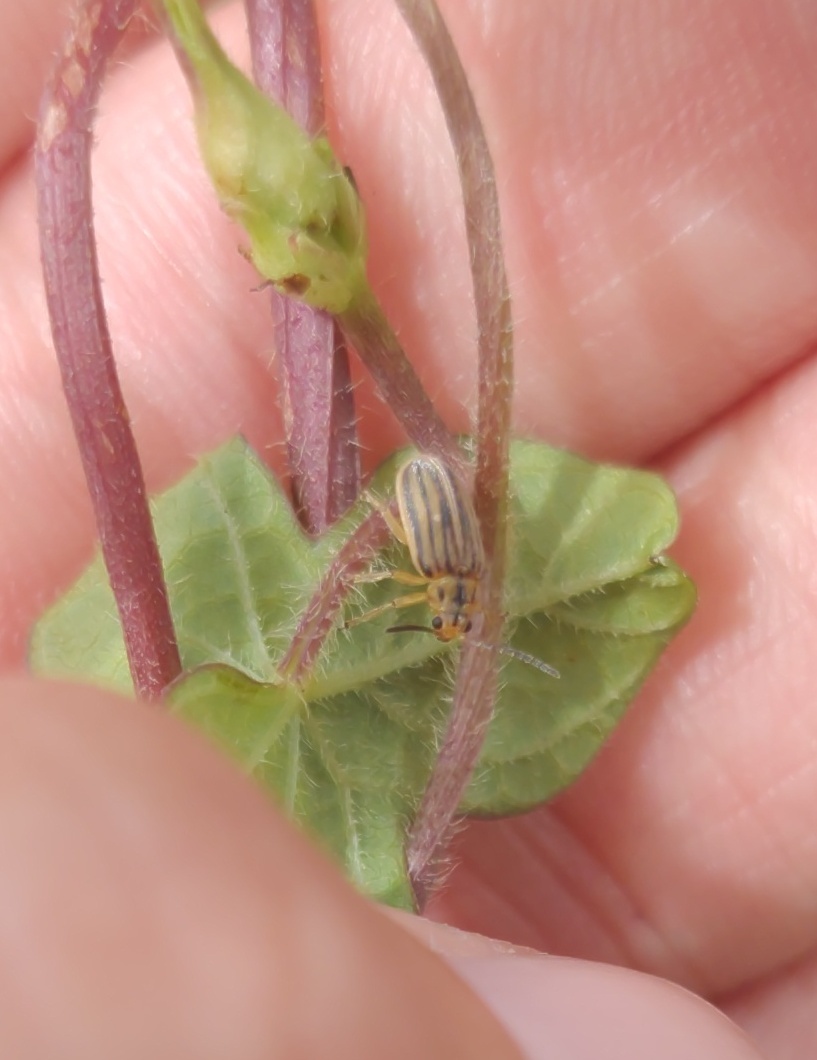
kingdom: Animalia
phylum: Arthropoda
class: Insecta
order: Coleoptera
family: Chrysomelidae
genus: Ophraella
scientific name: Ophraella slobodkini
